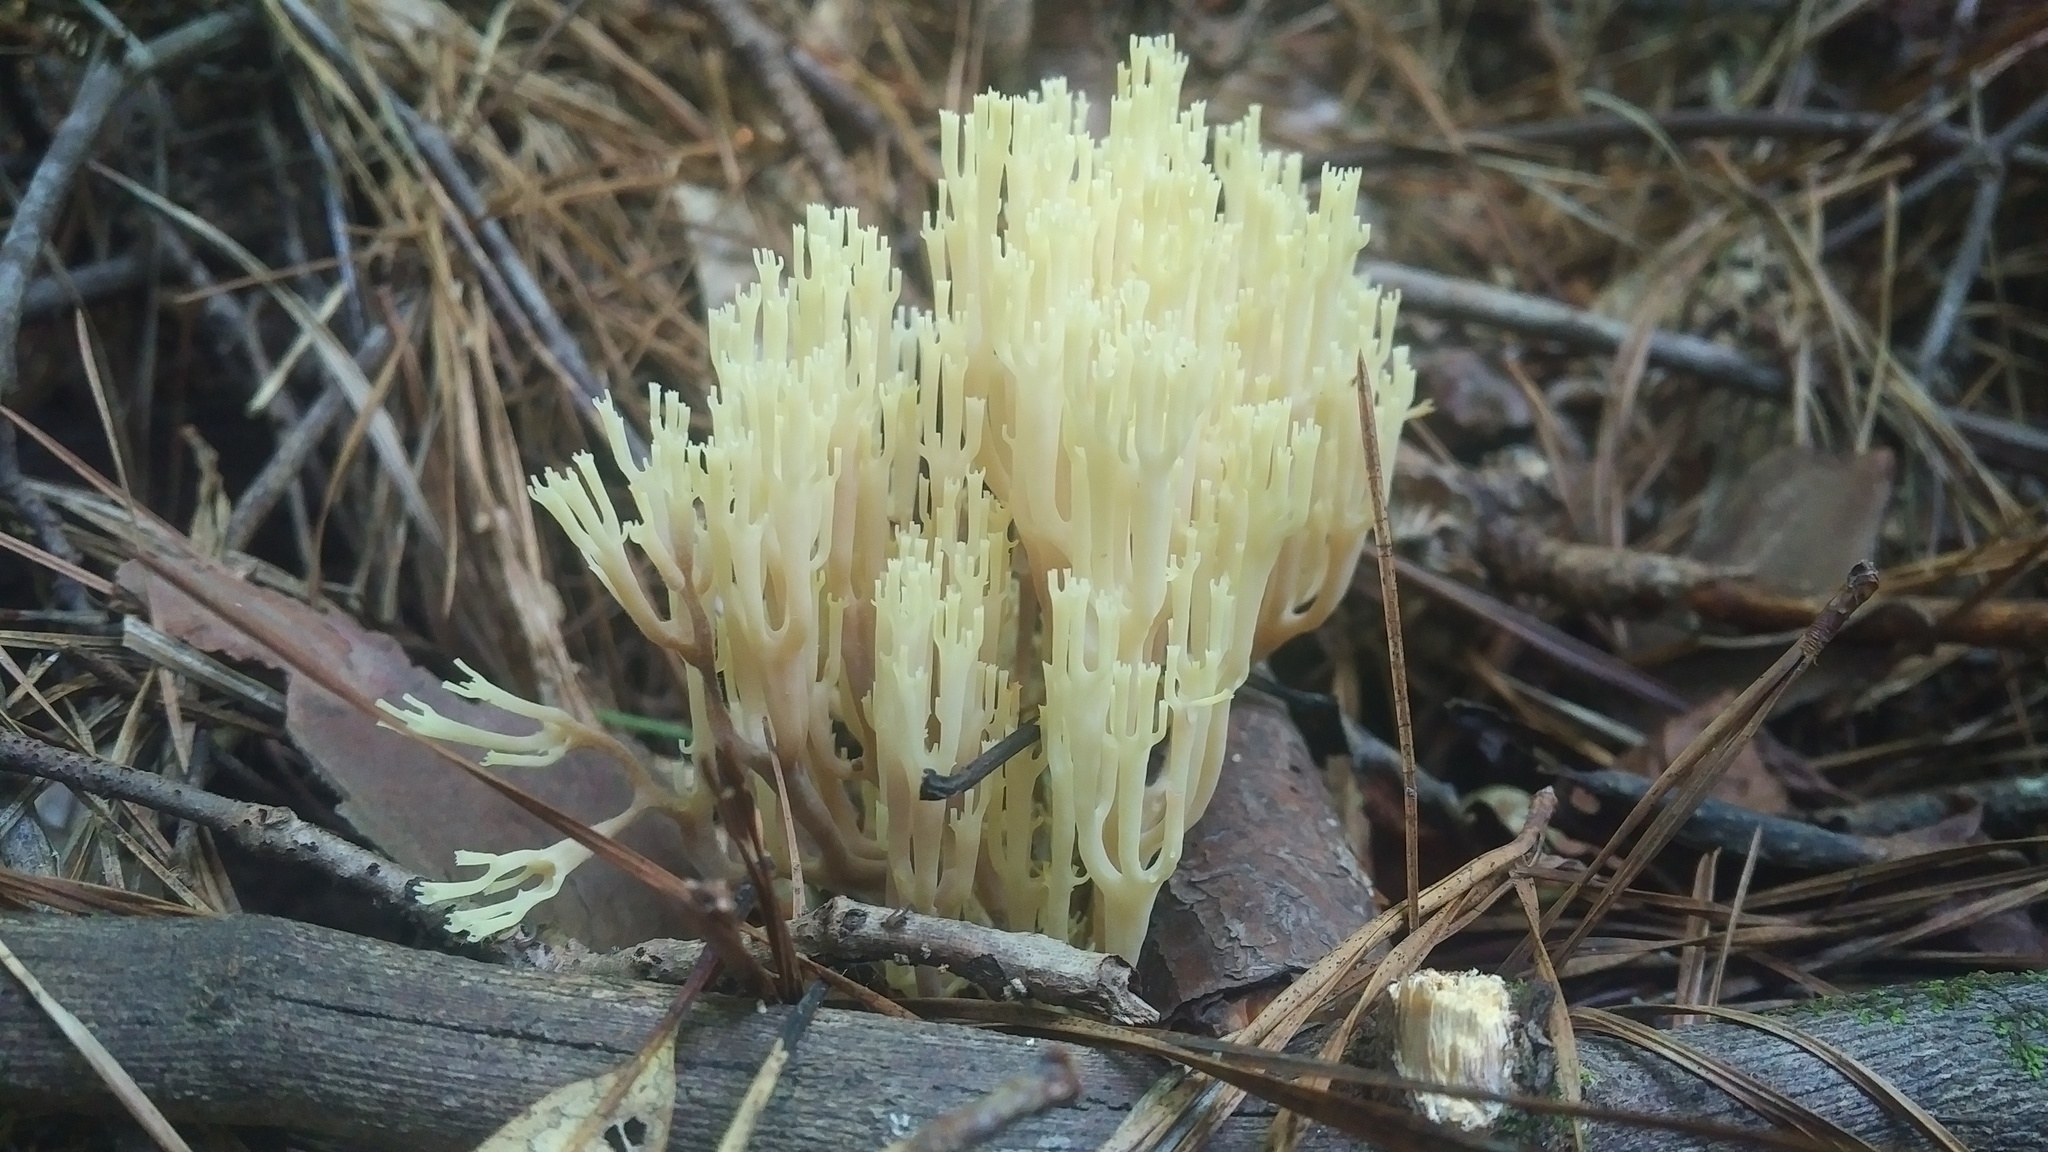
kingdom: Fungi
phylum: Basidiomycota
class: Agaricomycetes
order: Russulales
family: Auriscalpiaceae
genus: Artomyces
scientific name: Artomyces pyxidatus
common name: Crown-tipped coral fungus
